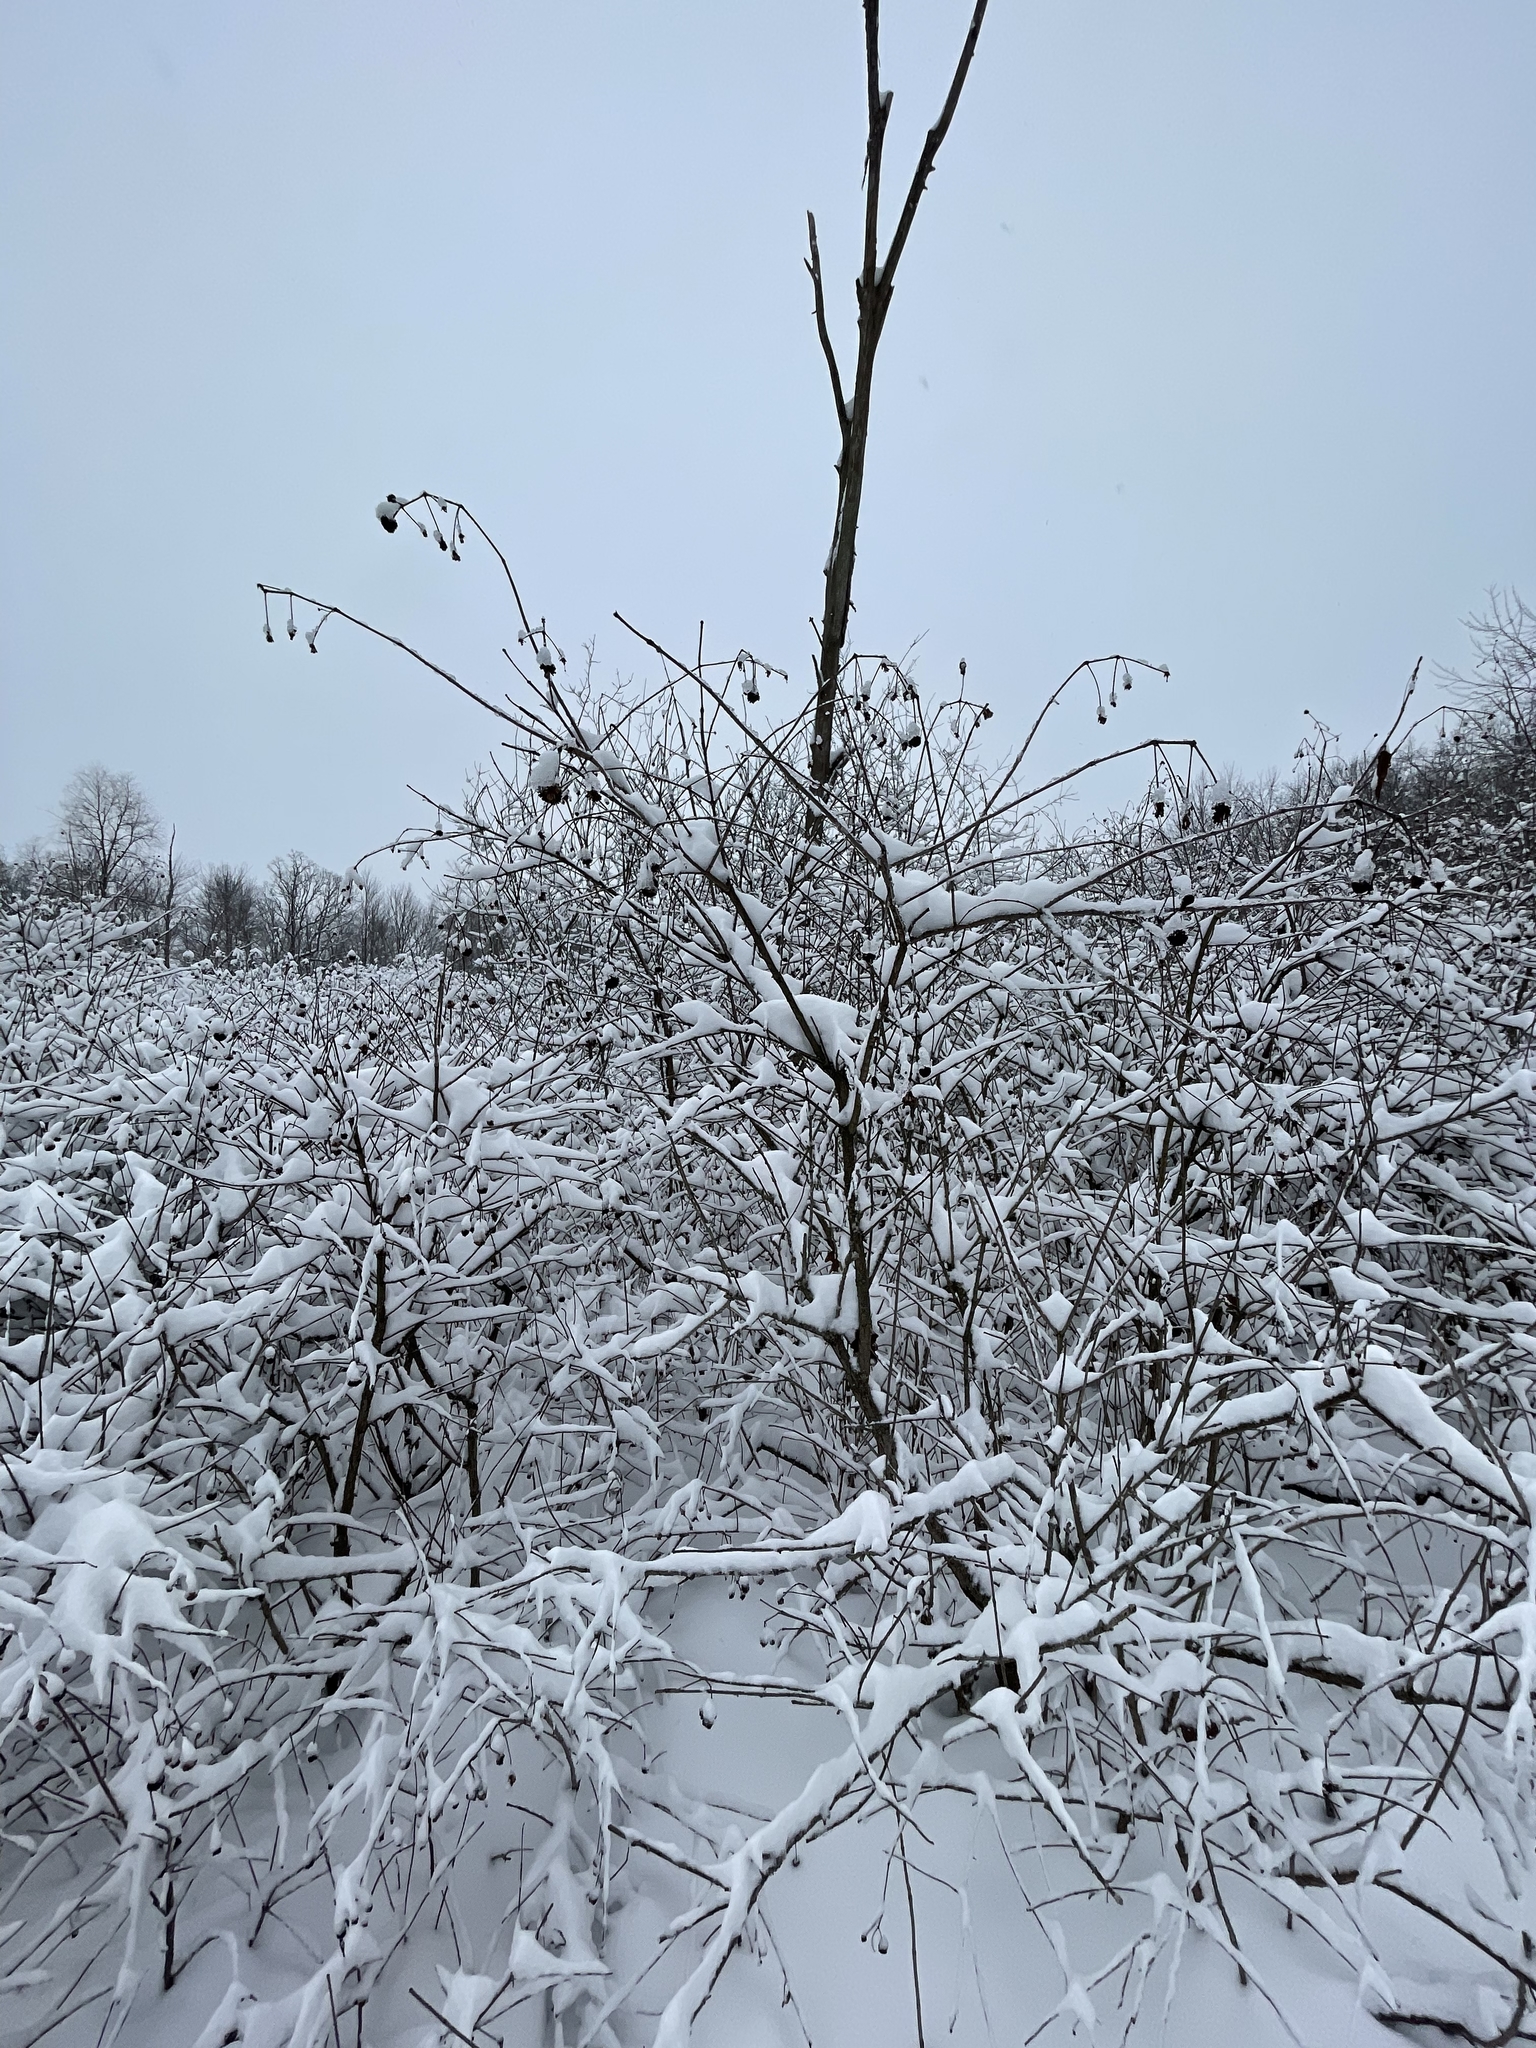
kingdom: Plantae
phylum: Tracheophyta
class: Magnoliopsida
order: Gentianales
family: Rubiaceae
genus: Cephalanthus
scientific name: Cephalanthus occidentalis
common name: Button-willow
